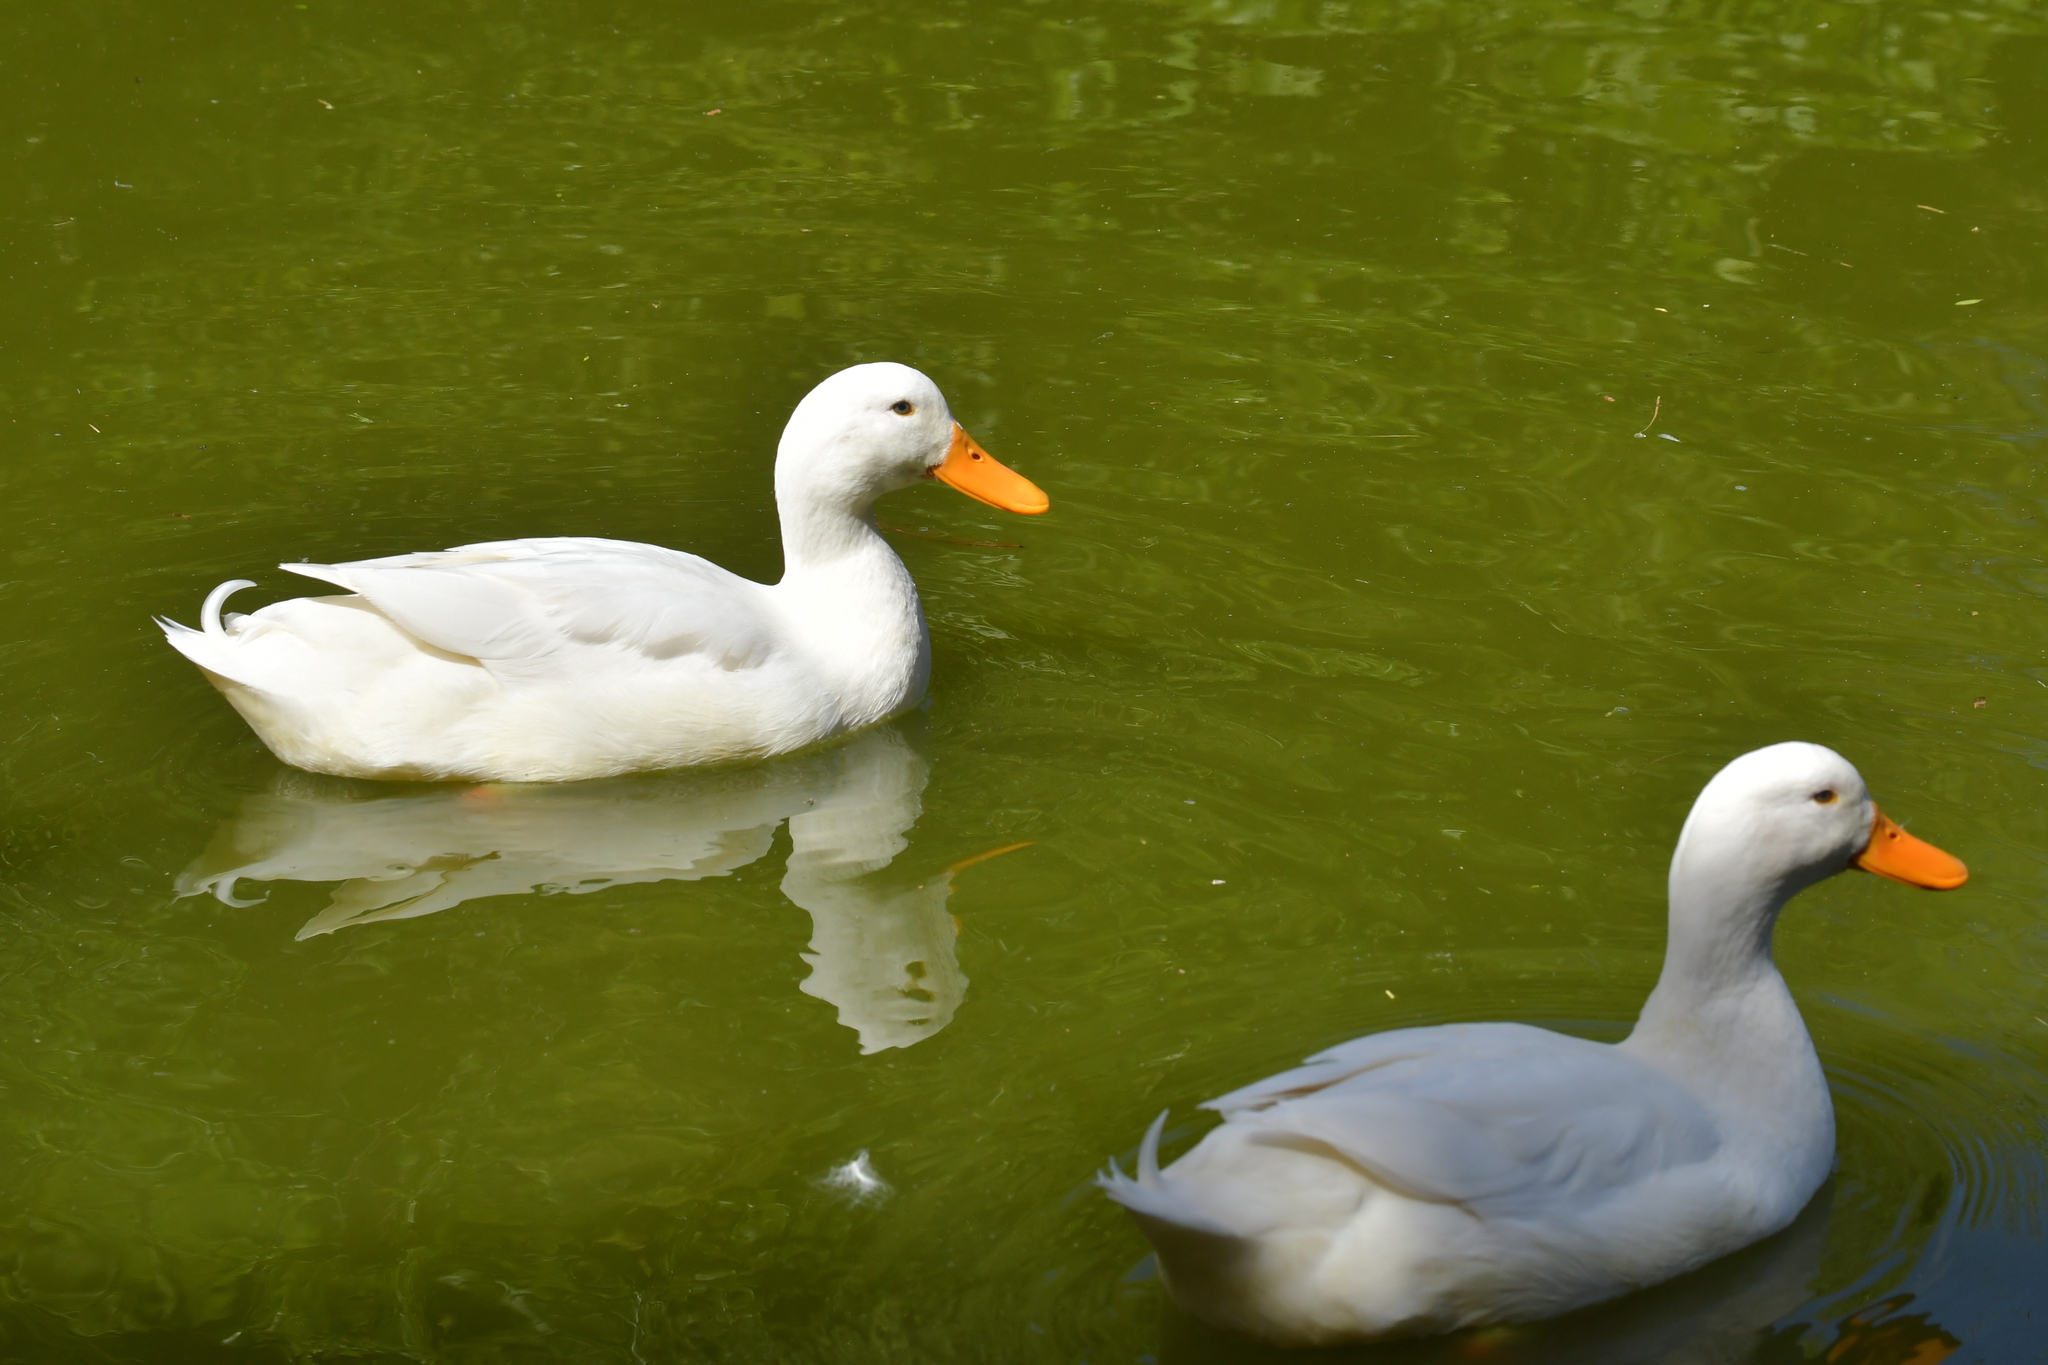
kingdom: Animalia
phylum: Chordata
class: Aves
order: Anseriformes
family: Anatidae
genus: Anas
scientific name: Anas platyrhynchos
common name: Mallard
